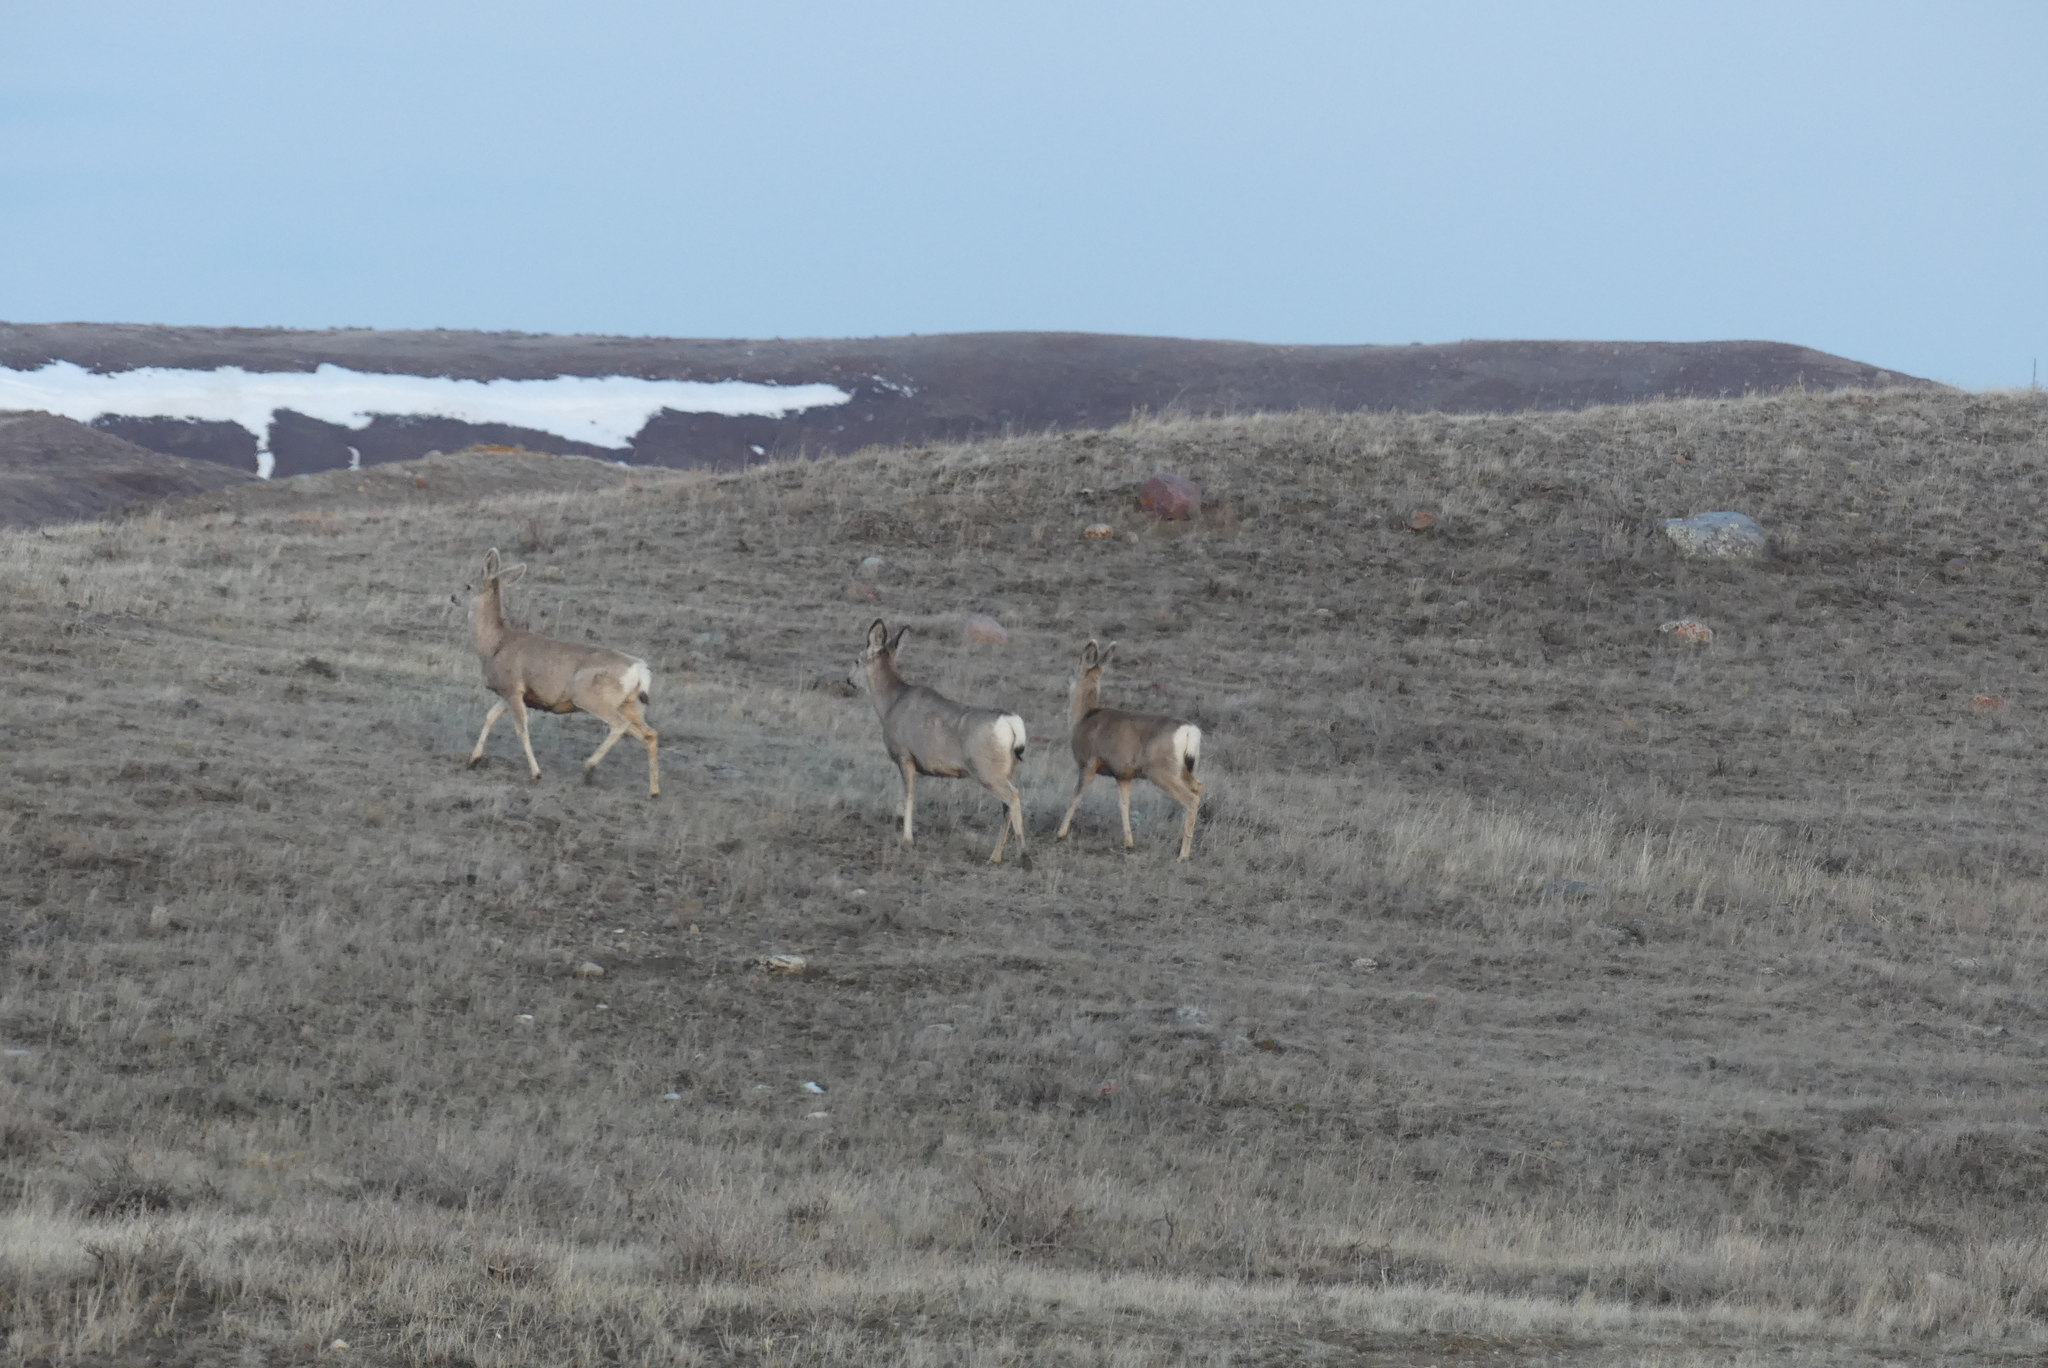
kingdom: Animalia
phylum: Chordata
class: Mammalia
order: Artiodactyla
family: Cervidae
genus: Odocoileus
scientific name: Odocoileus hemionus
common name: Mule deer
